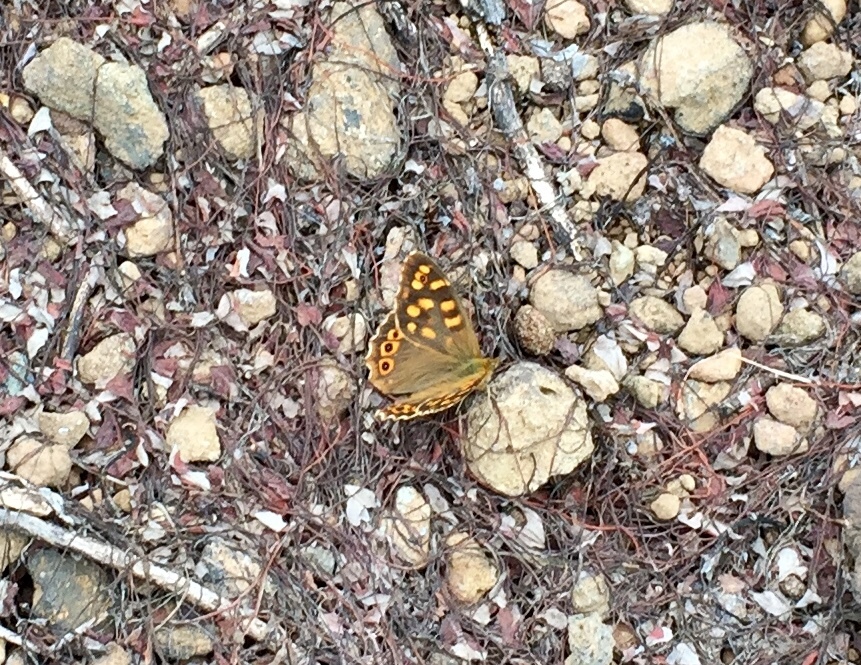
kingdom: Animalia
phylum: Arthropoda
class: Insecta
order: Lepidoptera
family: Nymphalidae
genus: Pararge
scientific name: Pararge aegeria
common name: Speckled wood
